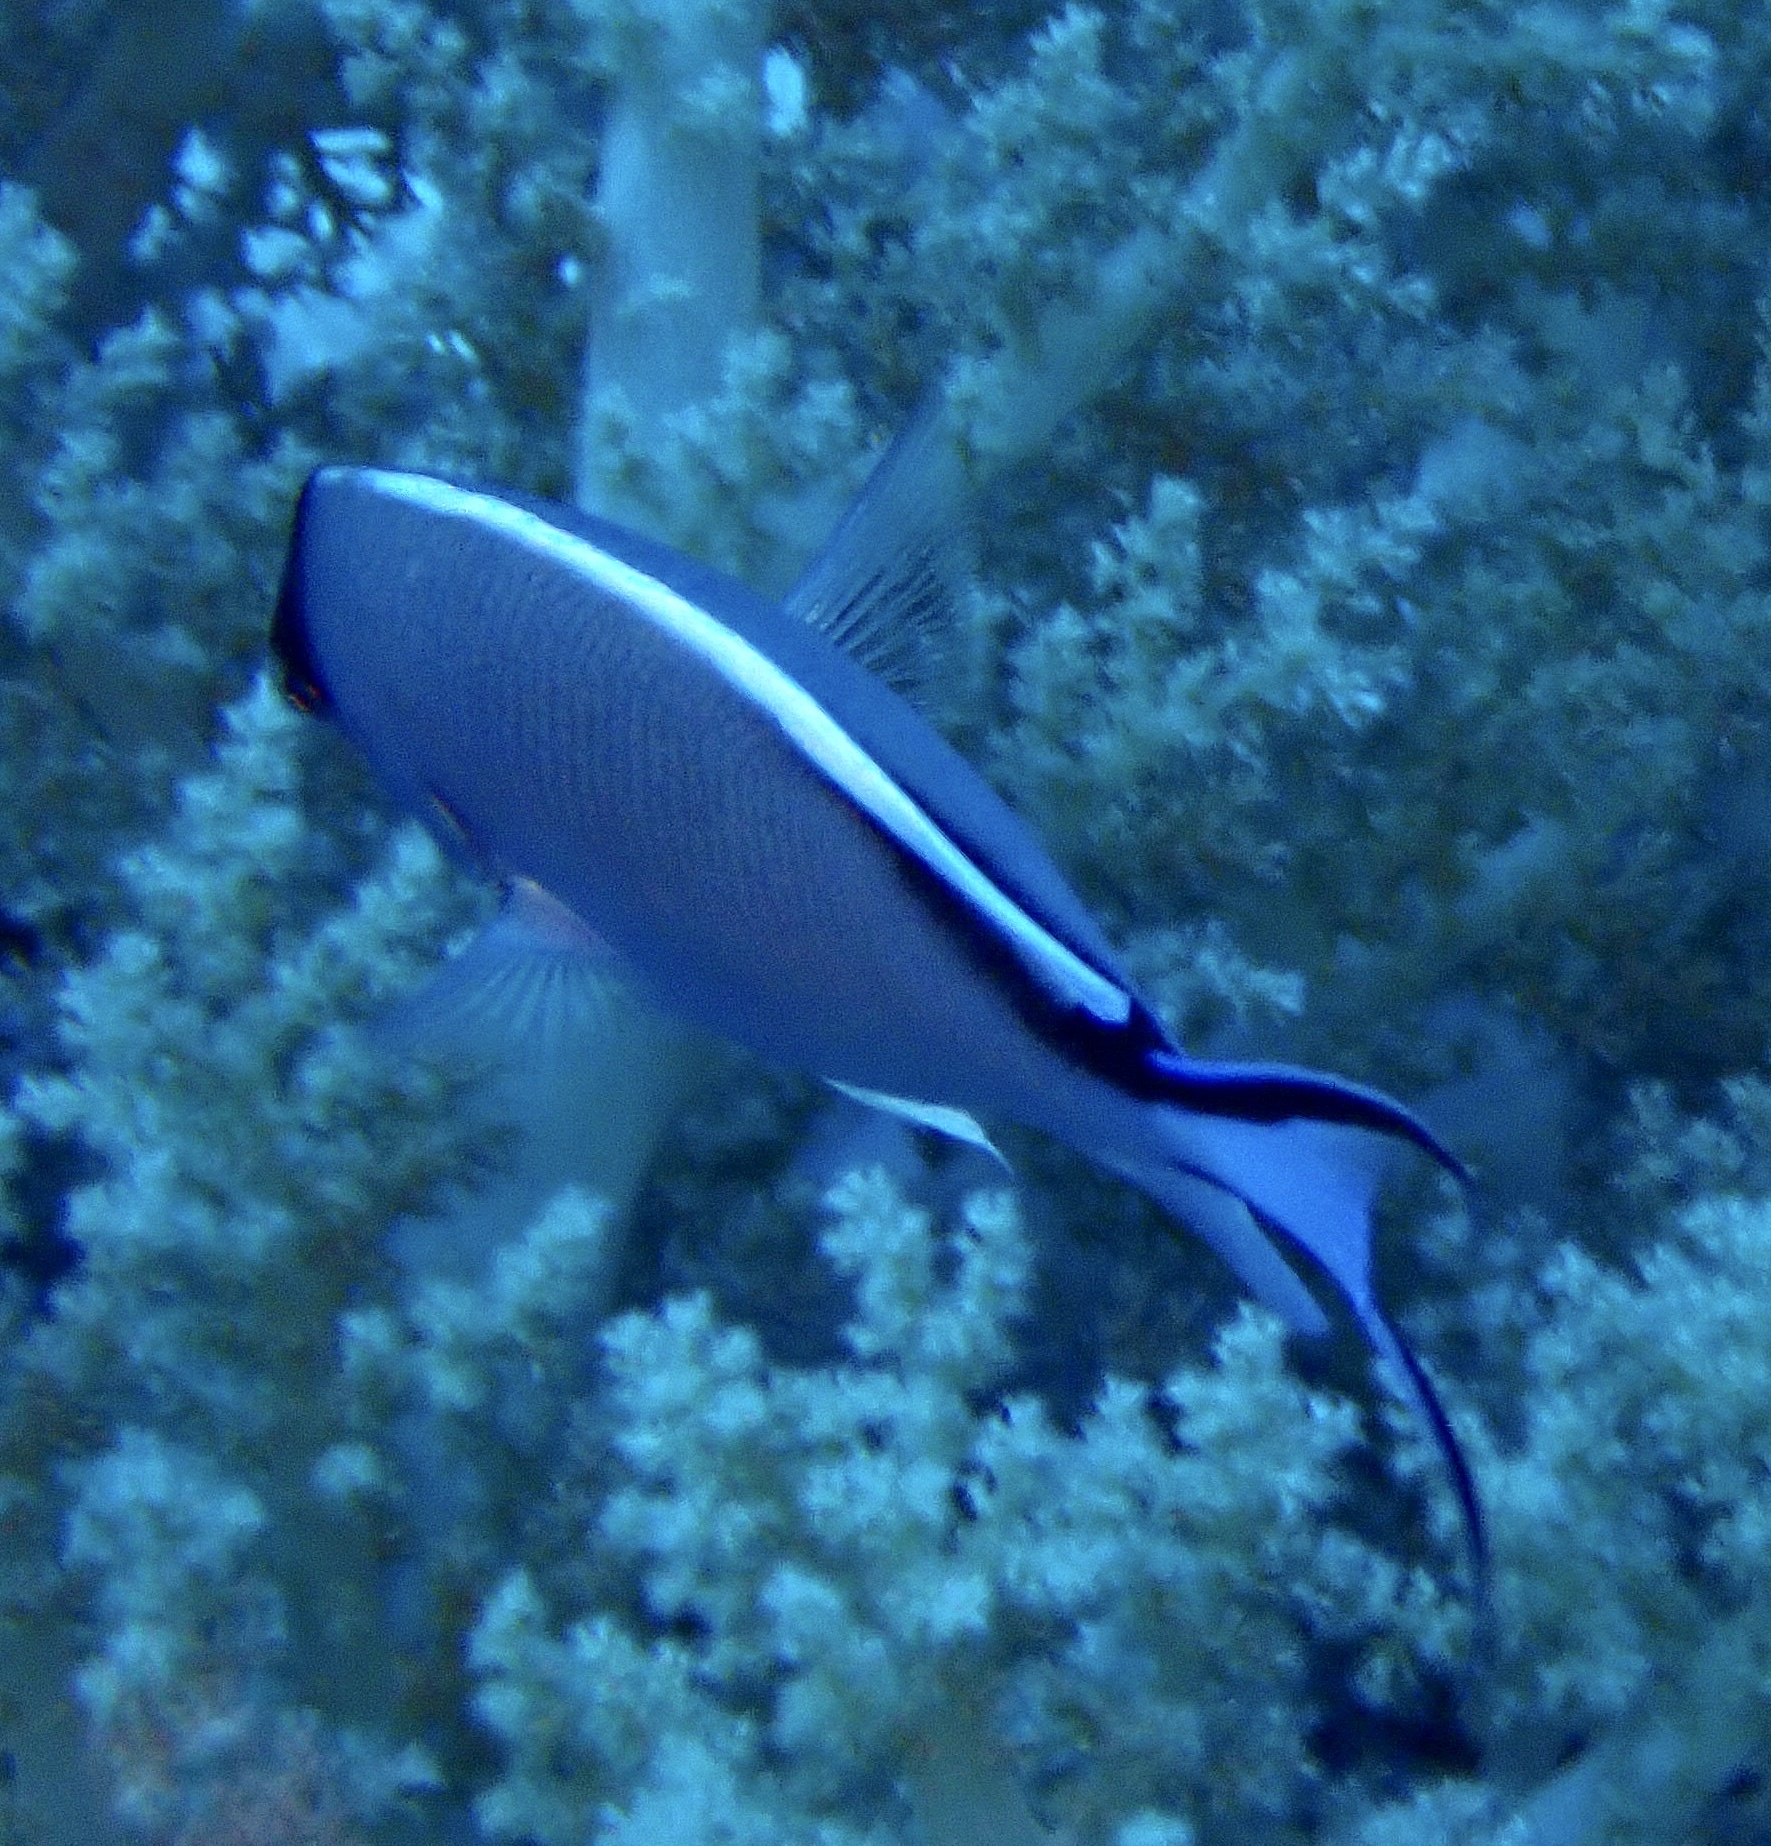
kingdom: Animalia
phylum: Chordata
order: Perciformes
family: Pomacanthidae
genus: Genicanthus
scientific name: Genicanthus caudovittatus
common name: Lyretail angelfish
